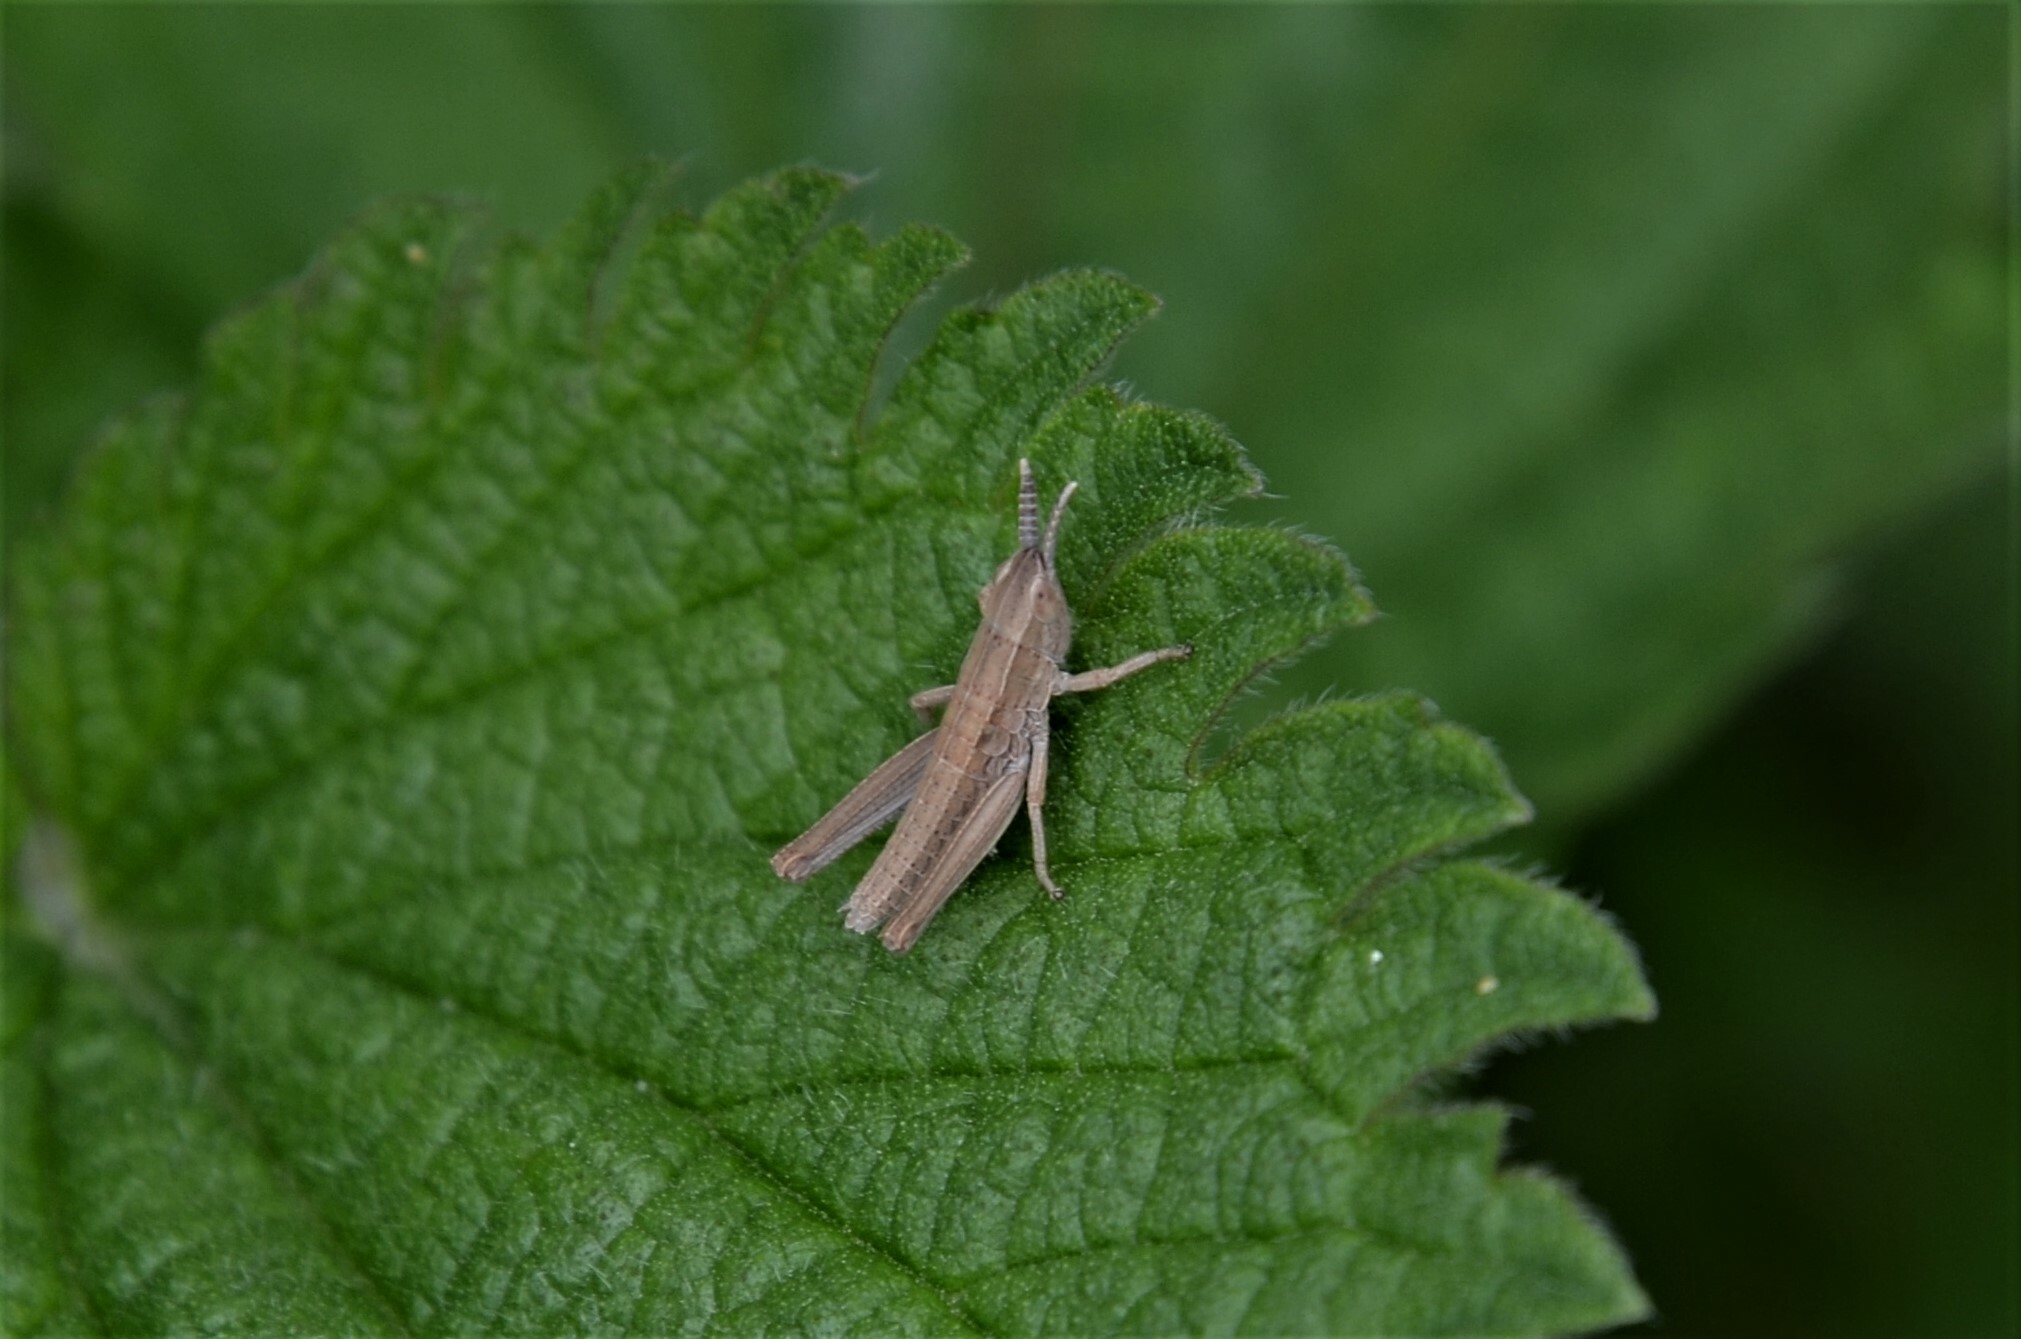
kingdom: Animalia
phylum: Arthropoda
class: Insecta
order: Orthoptera
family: Acrididae
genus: Euthystira
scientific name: Euthystira brachyptera
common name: Small gold grasshopper
